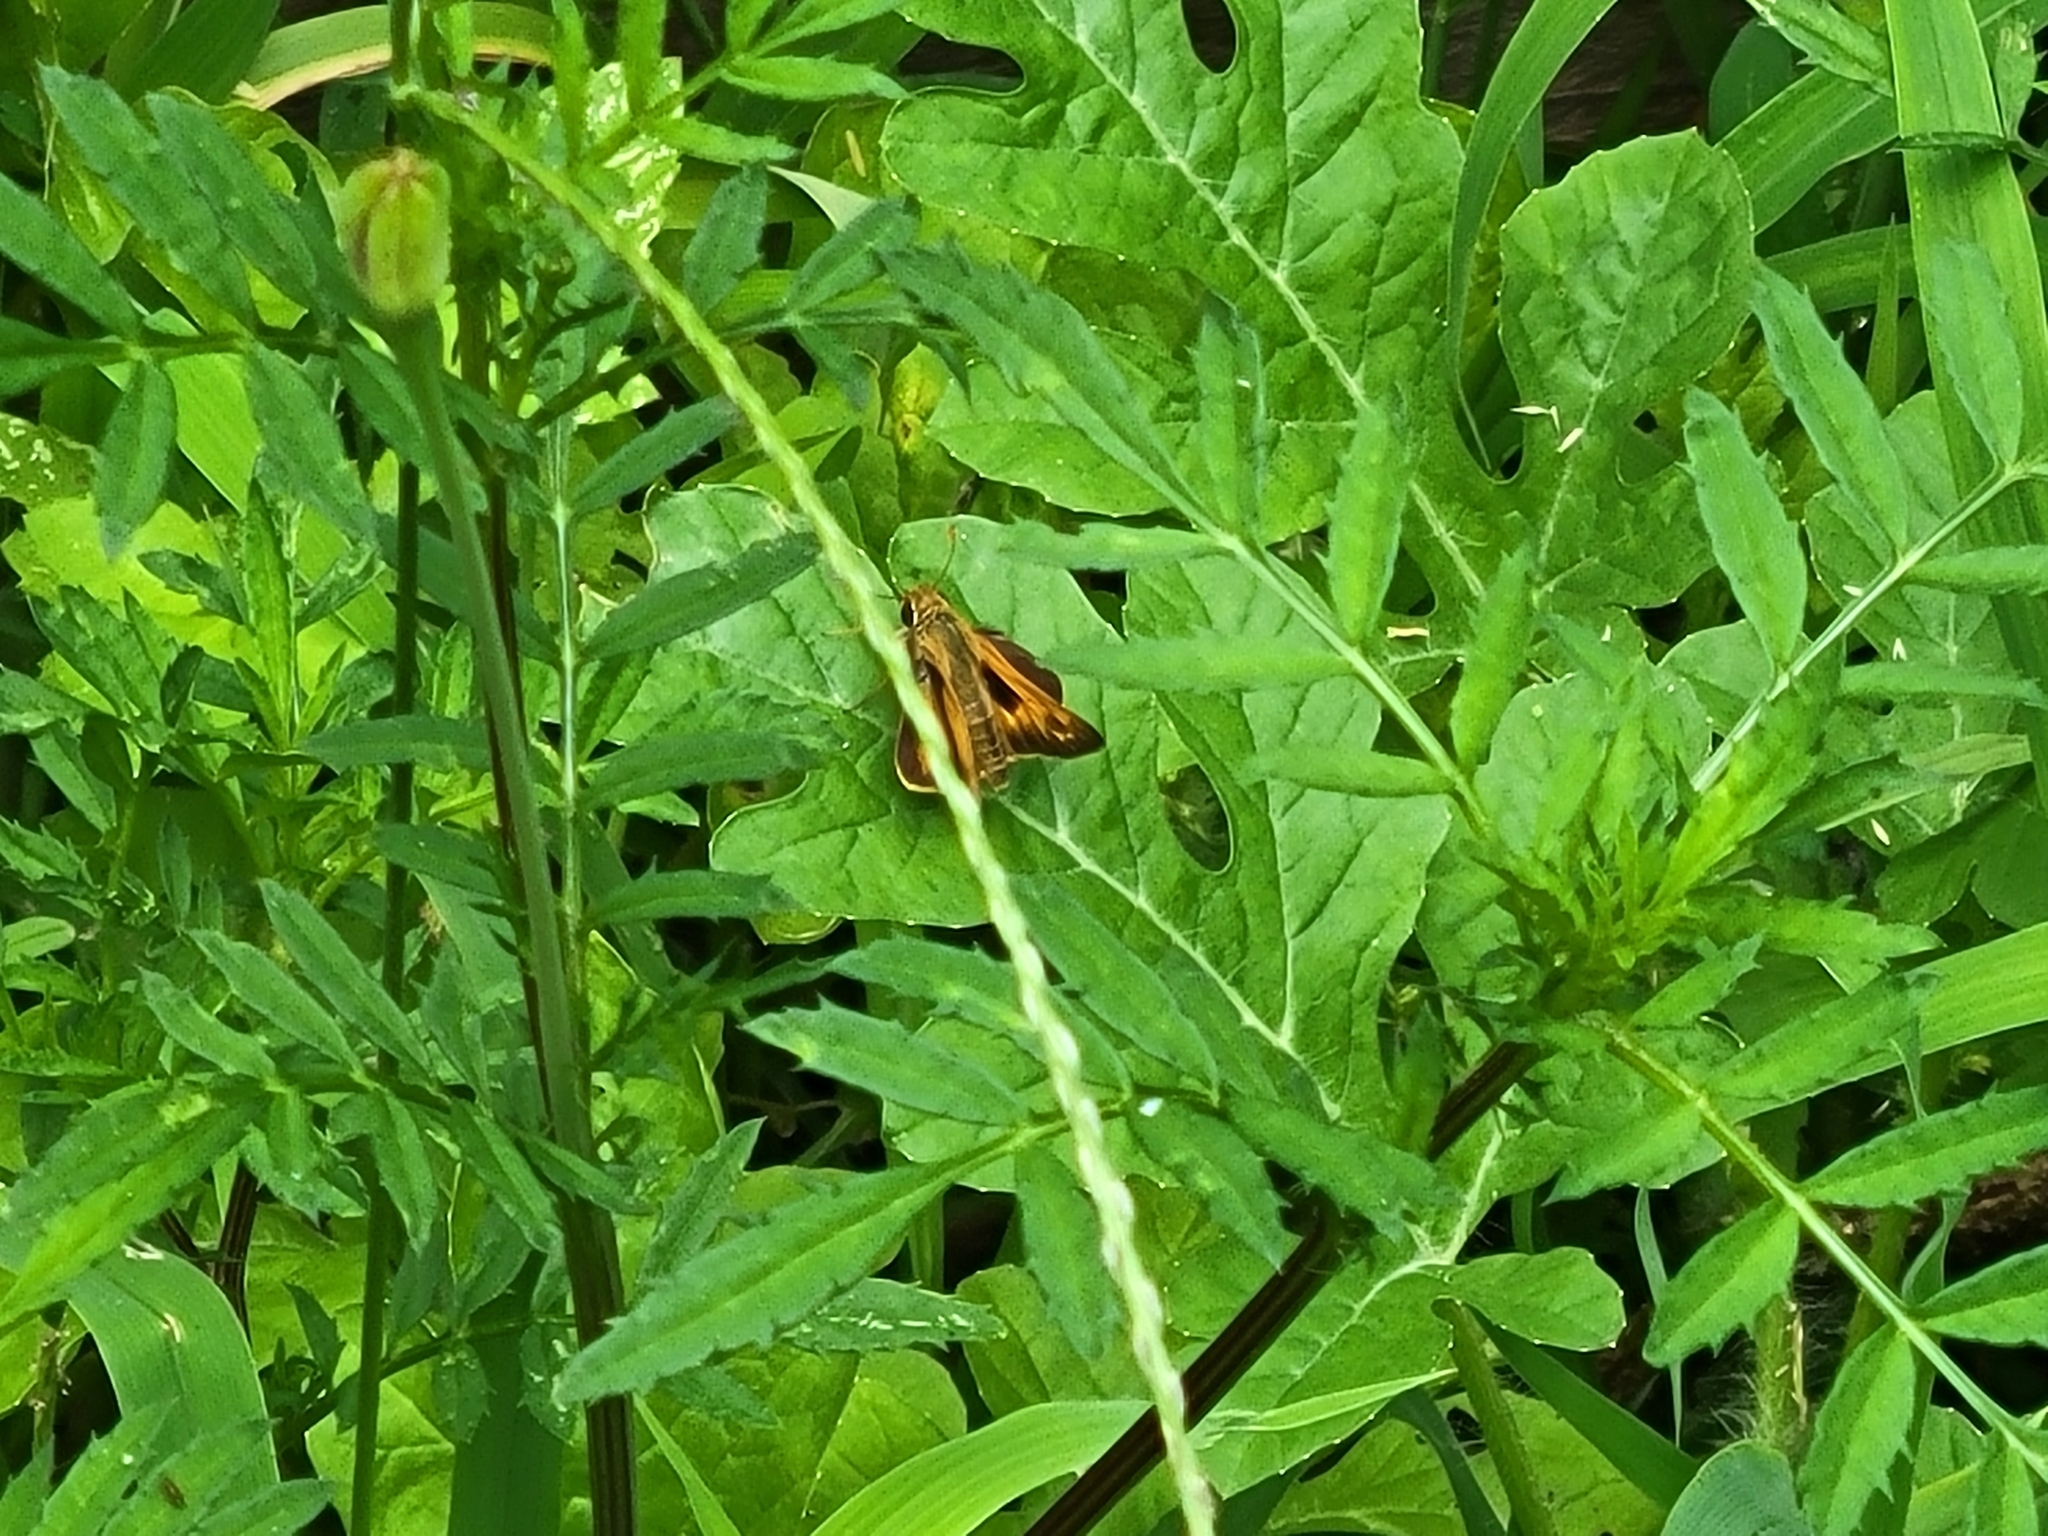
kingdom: Animalia
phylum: Arthropoda
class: Insecta
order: Lepidoptera
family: Hesperiidae
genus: Atalopedes
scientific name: Atalopedes
